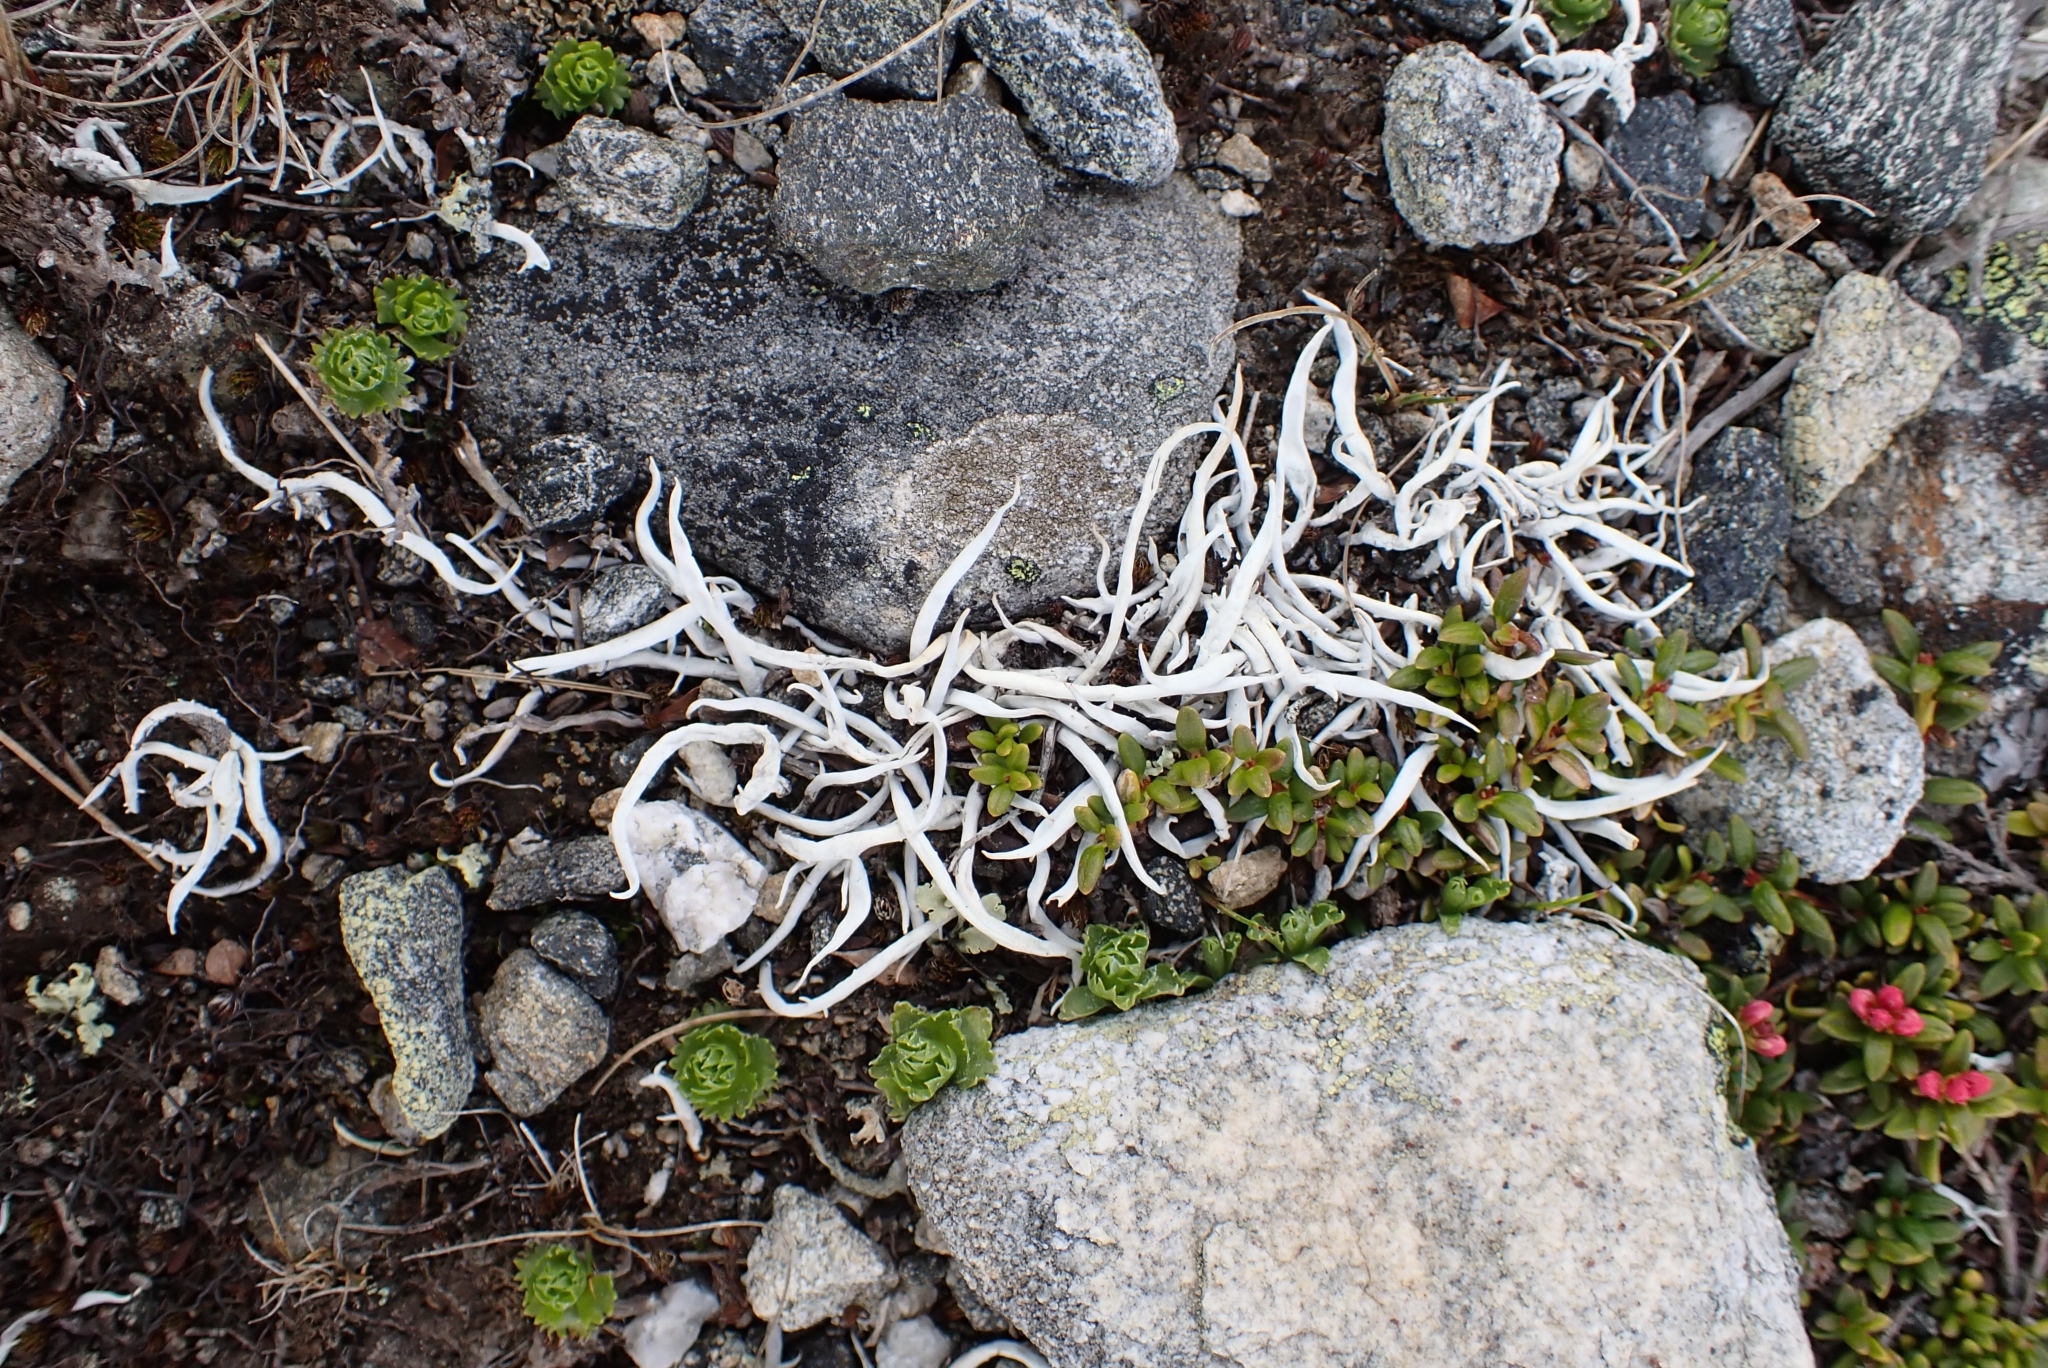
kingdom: Fungi
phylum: Ascomycota
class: Lecanoromycetes
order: Pertusariales
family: Icmadophilaceae
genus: Thamnolia
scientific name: Thamnolia vermicularis
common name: Whiteworm lichen
